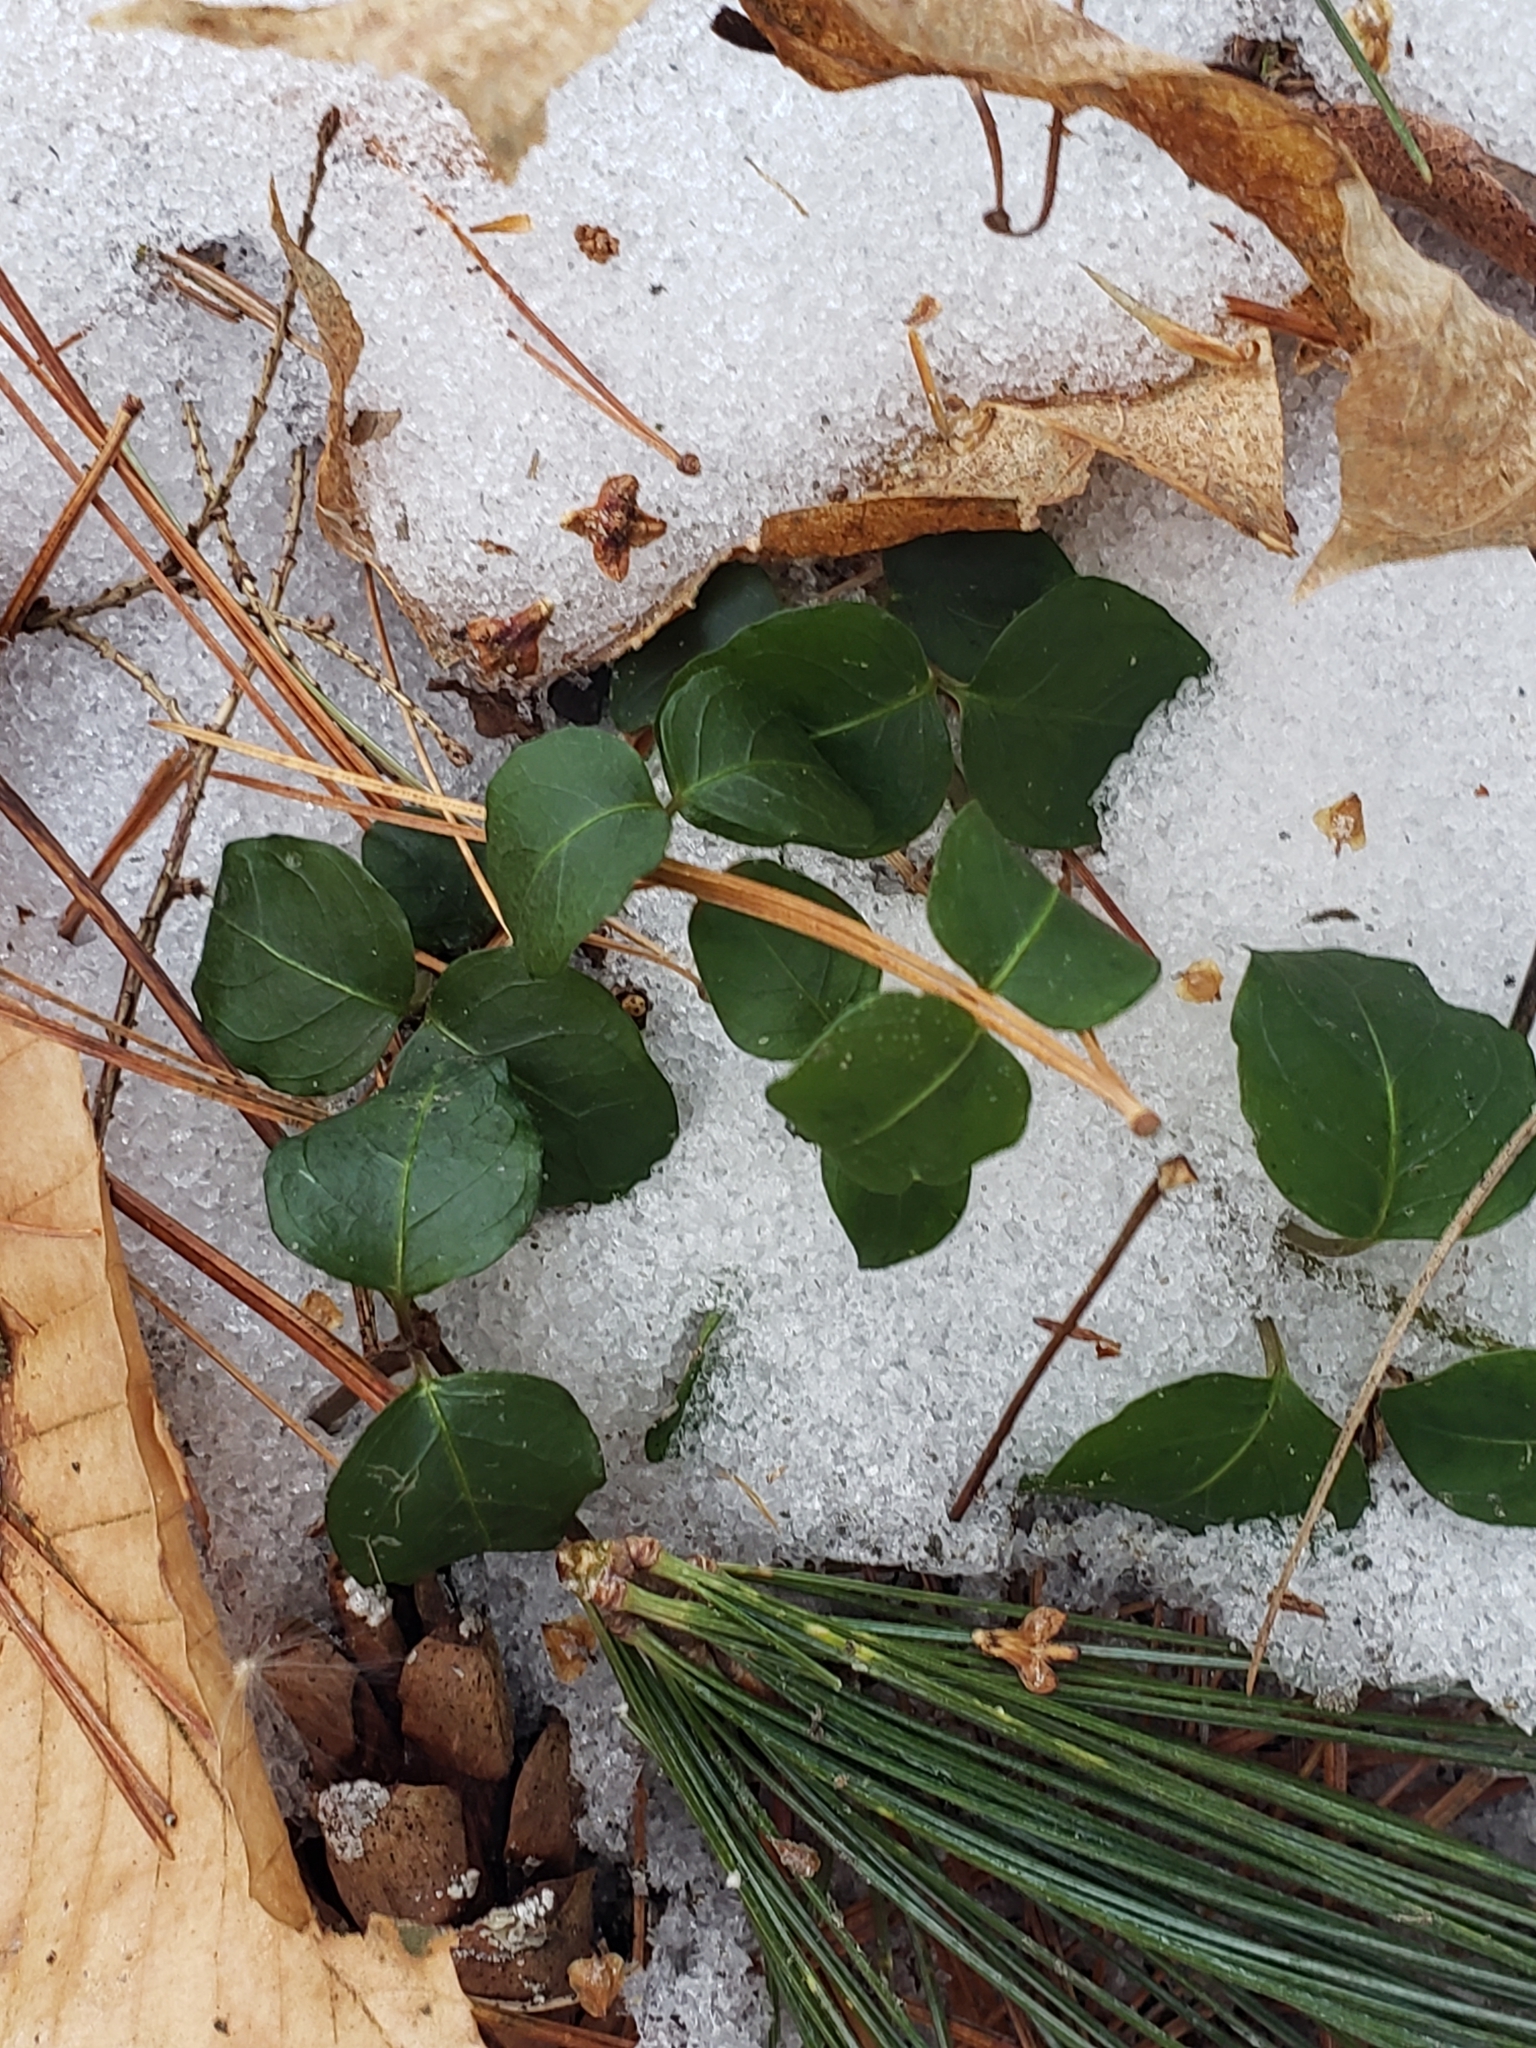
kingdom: Plantae
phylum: Tracheophyta
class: Magnoliopsida
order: Gentianales
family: Rubiaceae
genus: Mitchella
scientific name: Mitchella repens
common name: Partridge-berry
